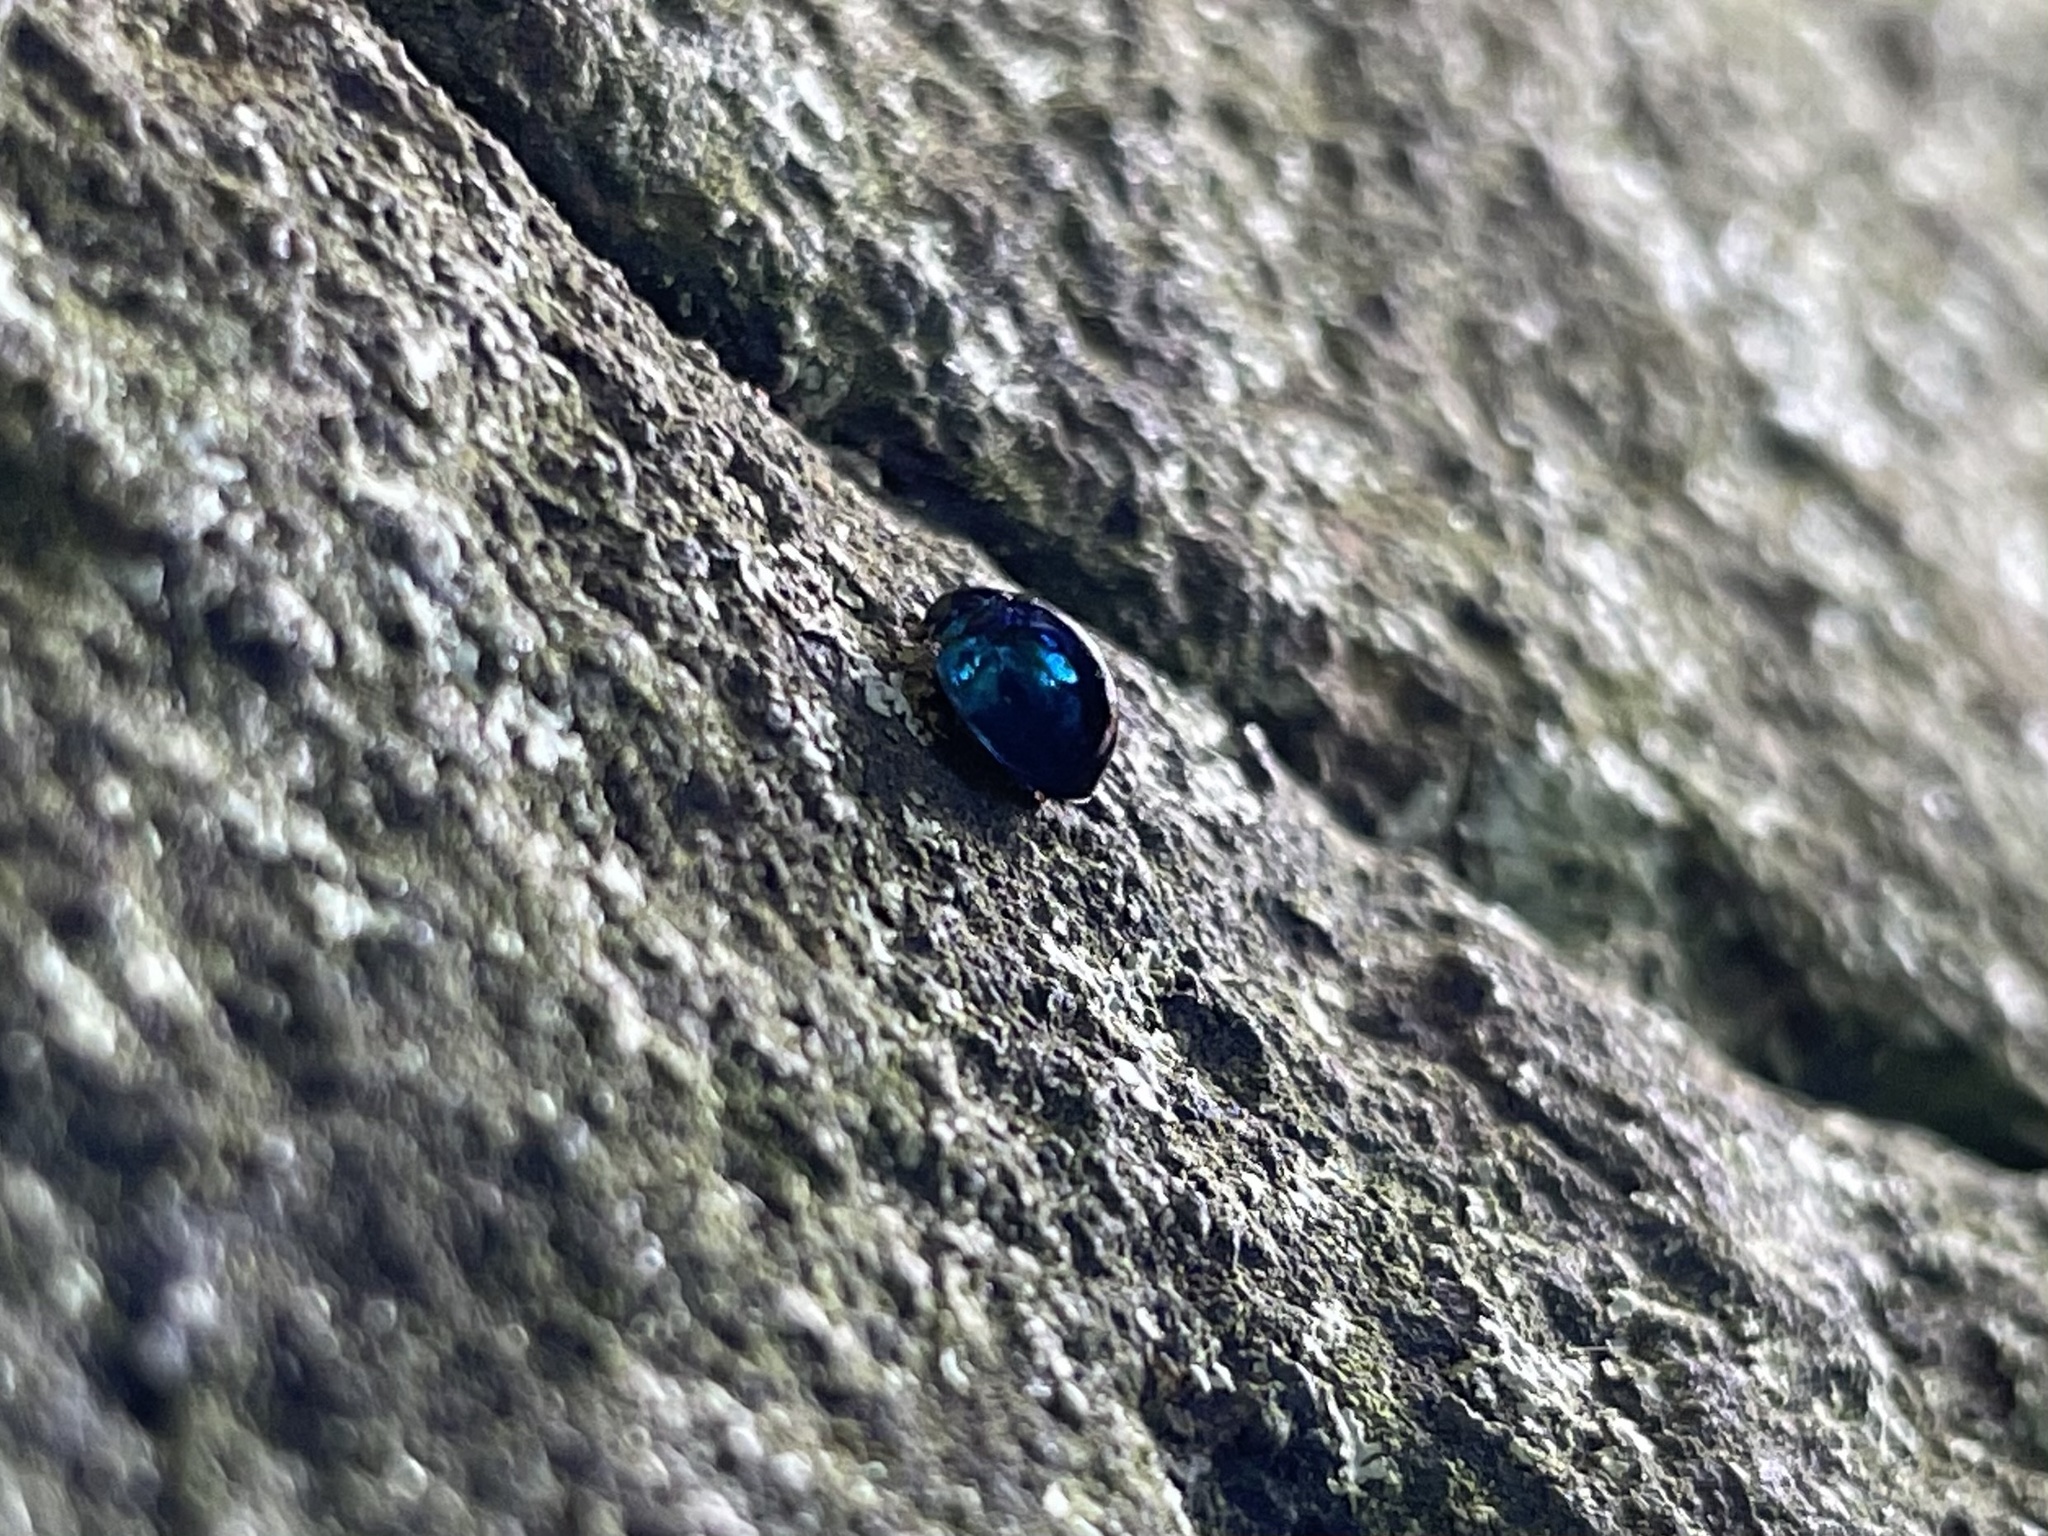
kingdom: Animalia
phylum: Arthropoda
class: Insecta
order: Coleoptera
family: Coccinellidae
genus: Halmus
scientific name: Halmus chalybeus
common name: Steel blue ladybird beetle
